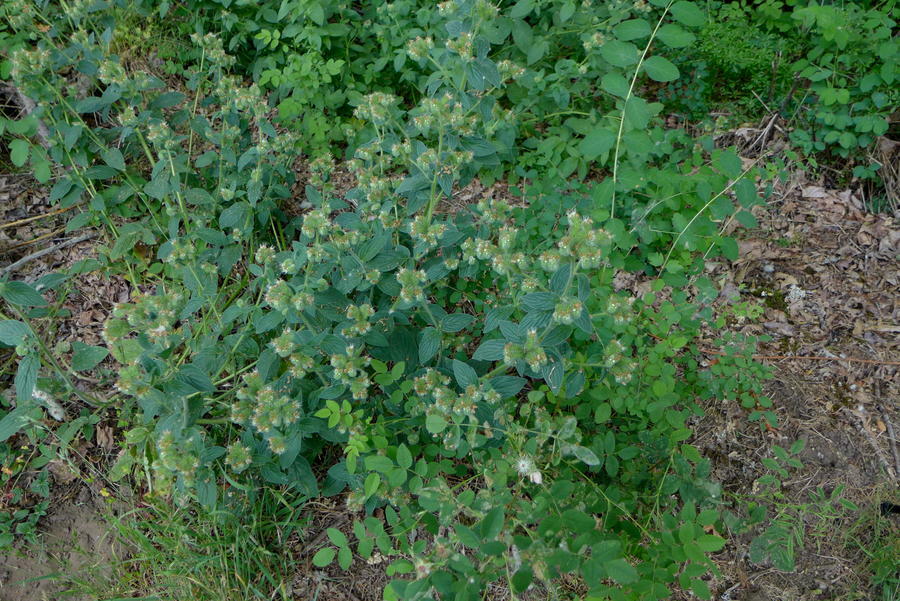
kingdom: Plantae
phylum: Tracheophyta
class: Magnoliopsida
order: Boraginales
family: Hydrophyllaceae
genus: Phacelia
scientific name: Phacelia nemoralis
